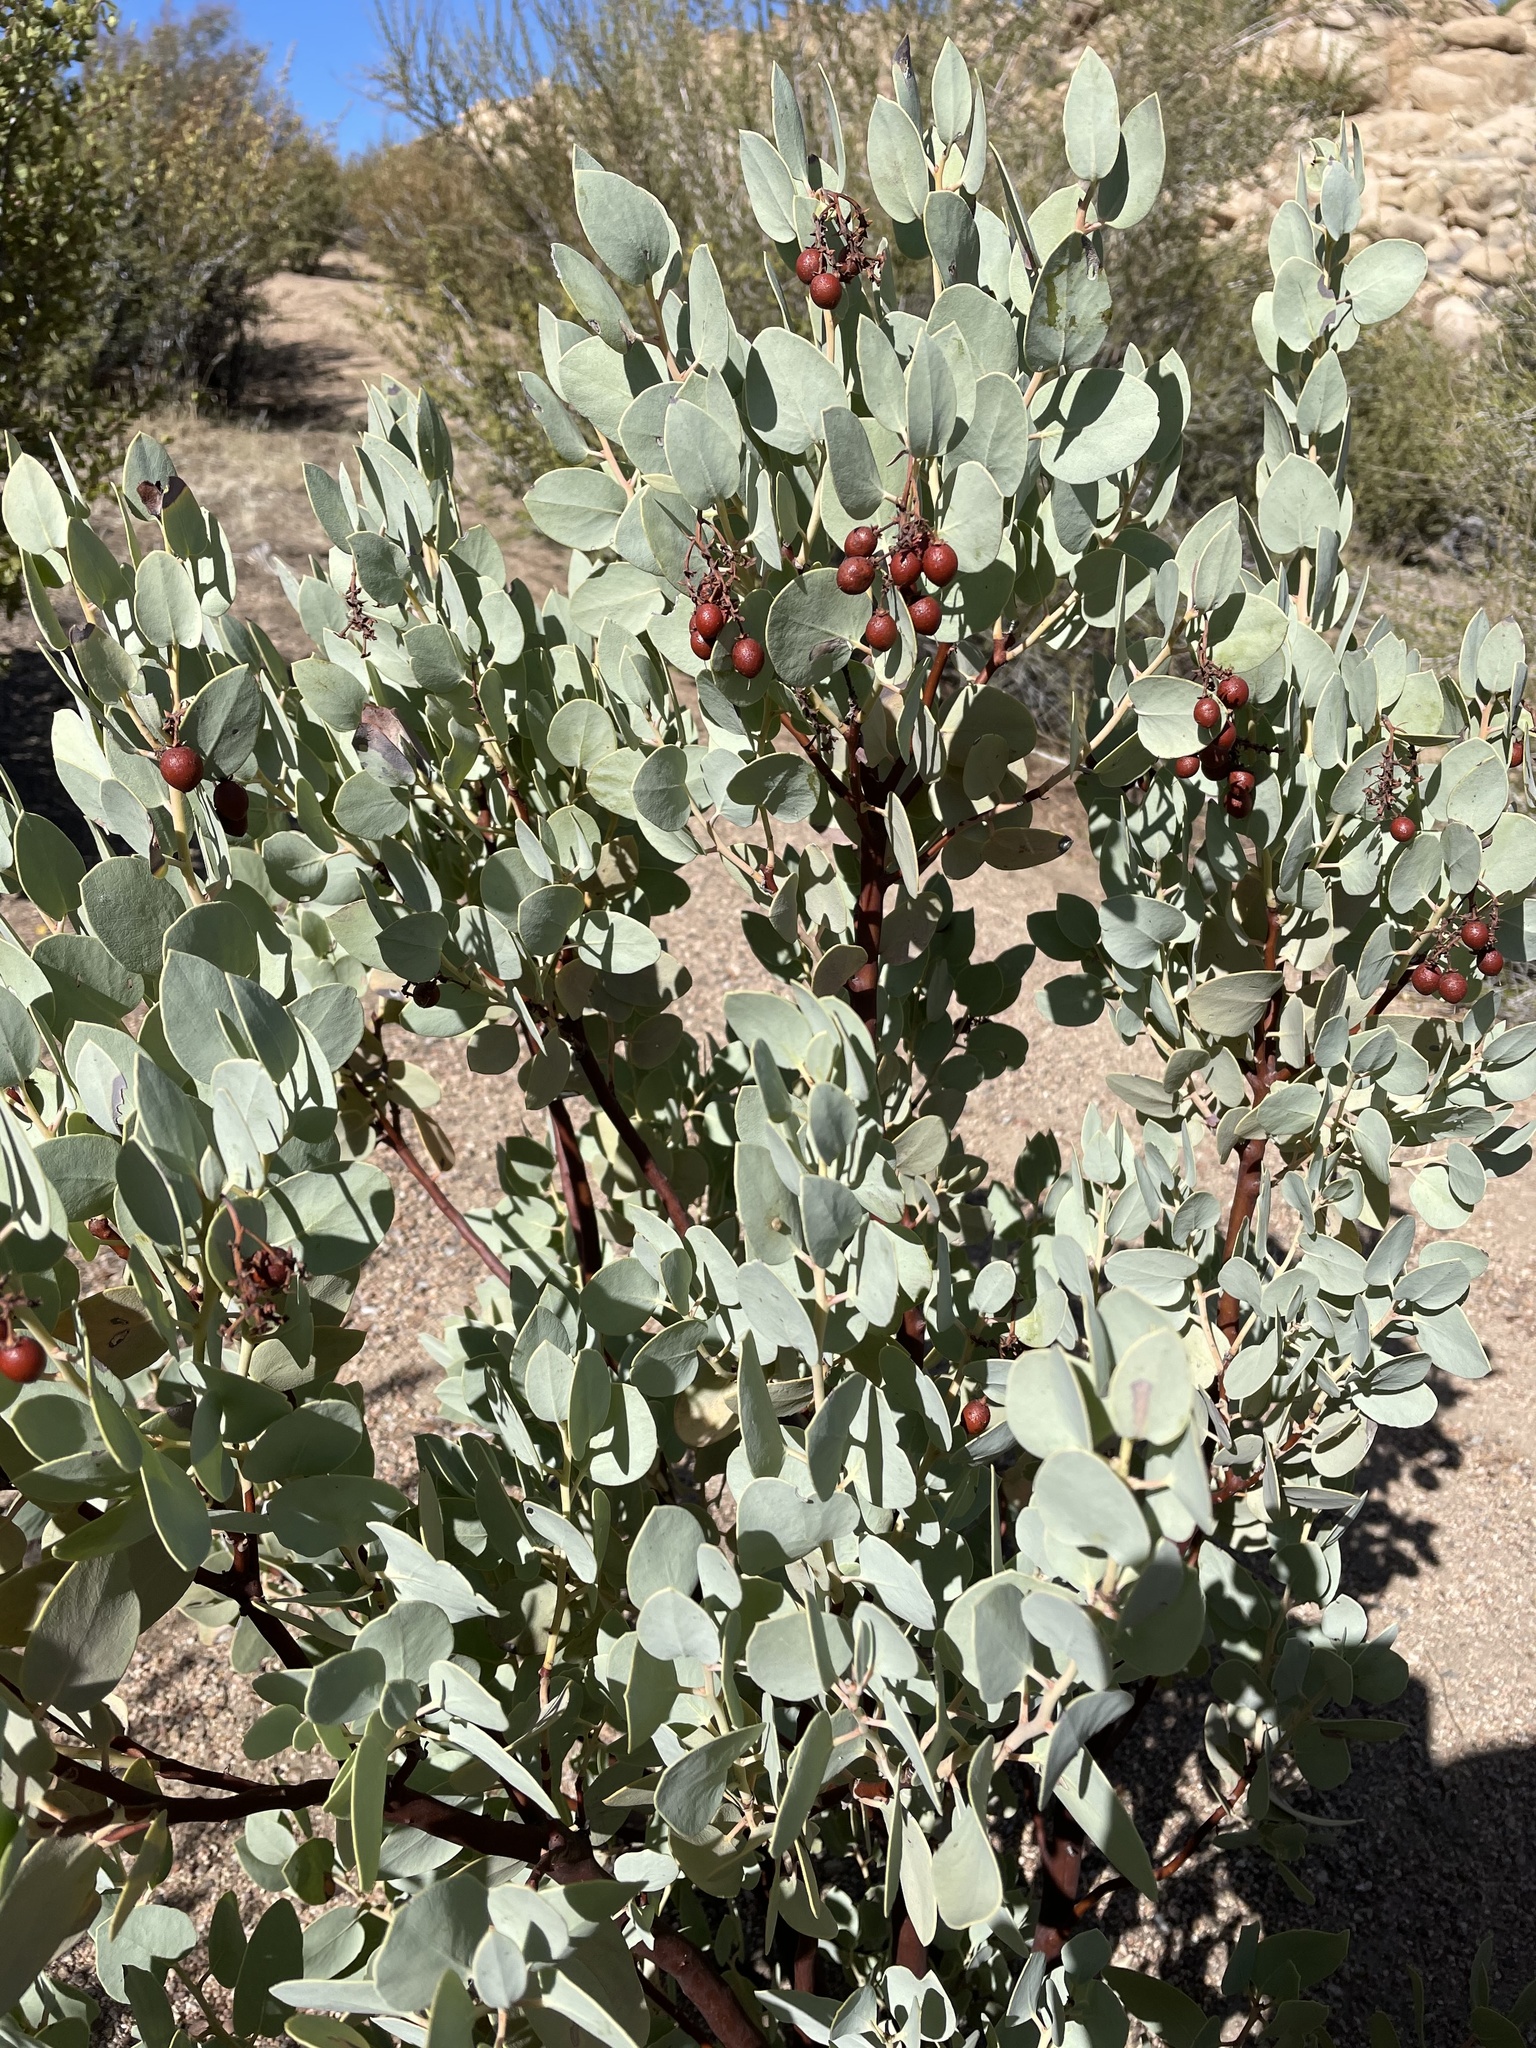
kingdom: Plantae
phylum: Tracheophyta
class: Magnoliopsida
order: Ericales
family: Ericaceae
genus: Arctostaphylos
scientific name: Arctostaphylos glauca
